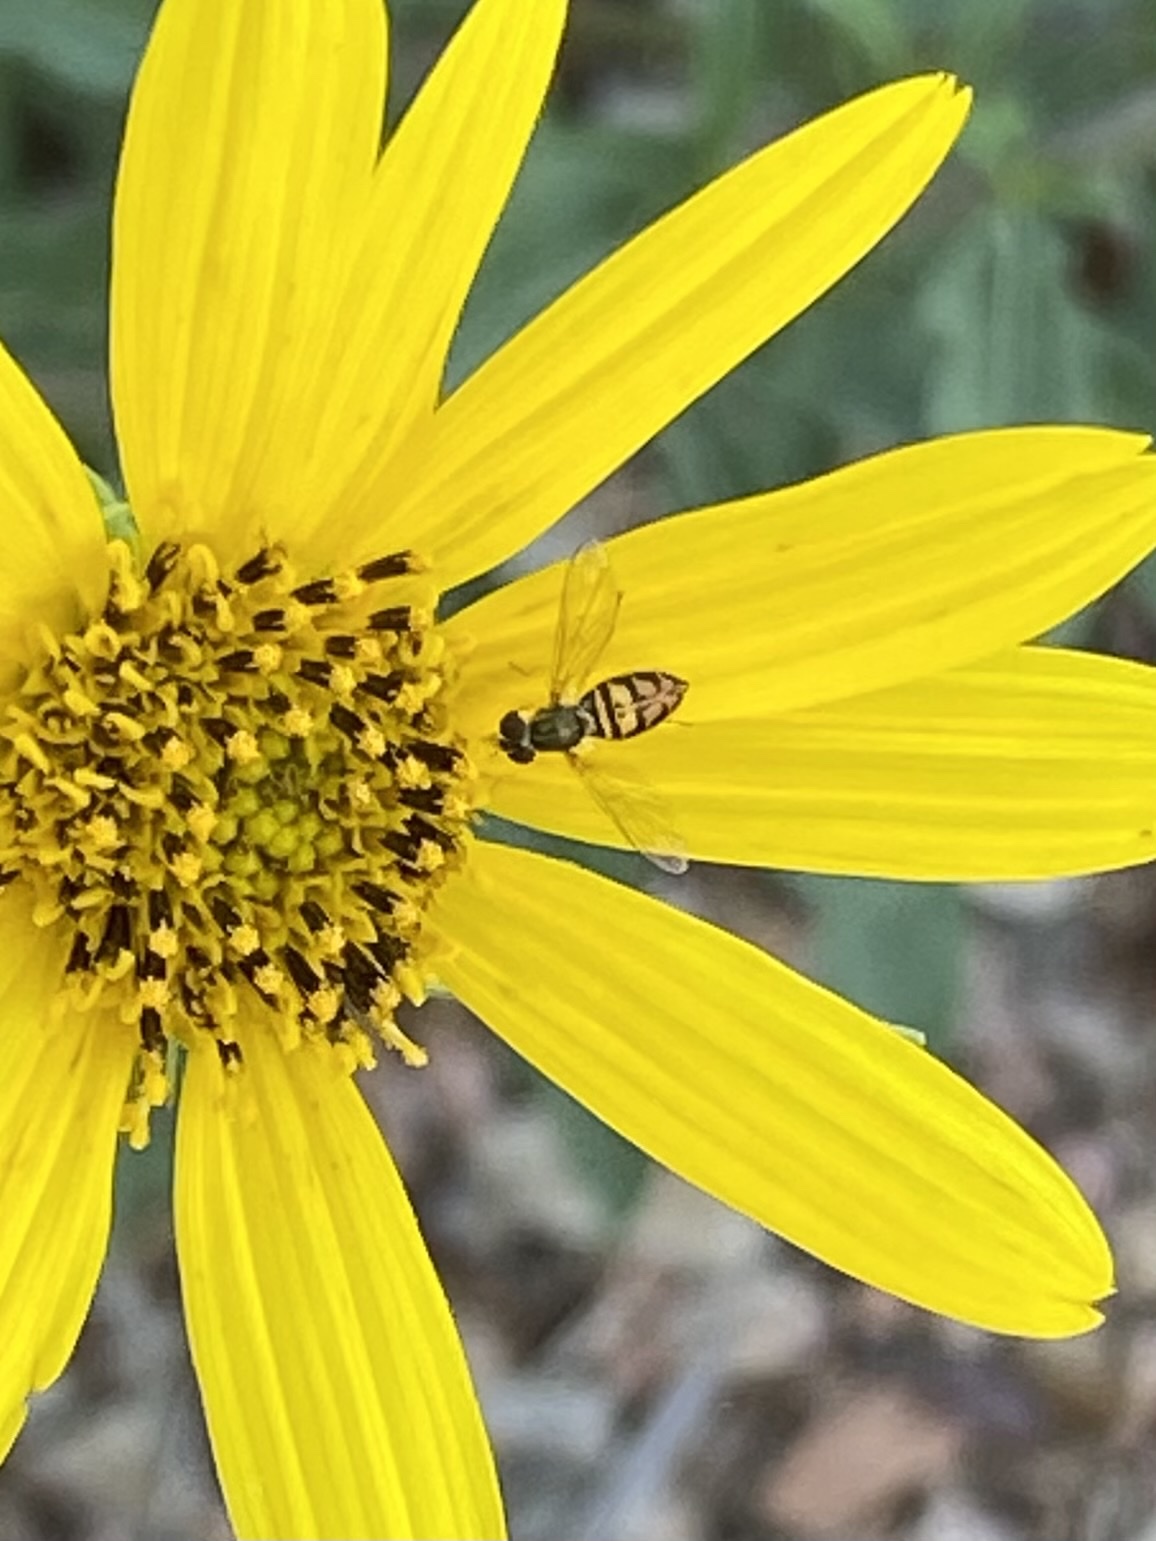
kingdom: Animalia
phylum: Arthropoda
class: Insecta
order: Diptera
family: Syrphidae
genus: Toxomerus
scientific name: Toxomerus marginatus
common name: Syrphid fly
